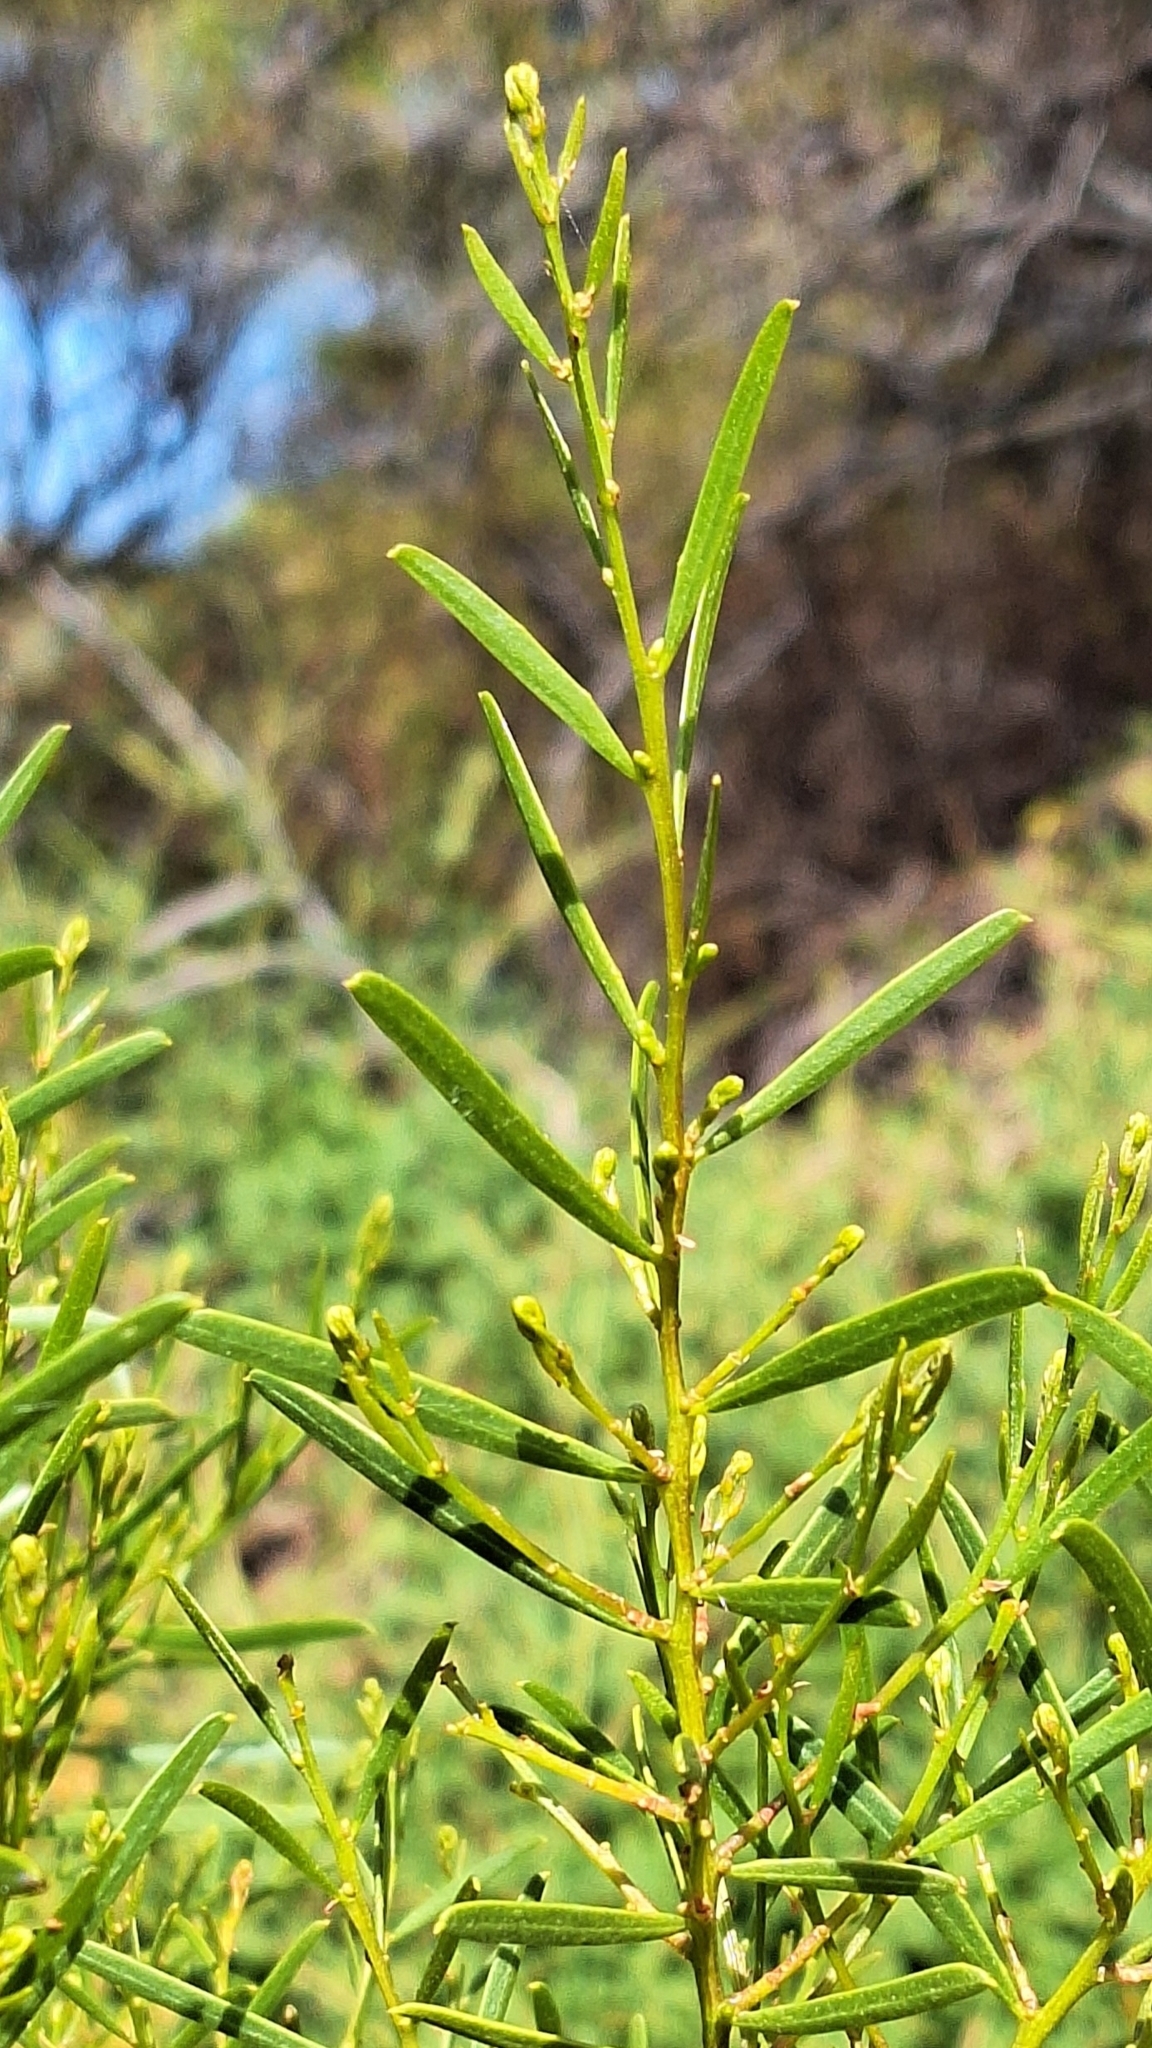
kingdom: Plantae
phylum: Tracheophyta
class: Magnoliopsida
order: Fabales
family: Fabaceae
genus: Acacia
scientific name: Acacia ligulata
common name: Dune wattle
